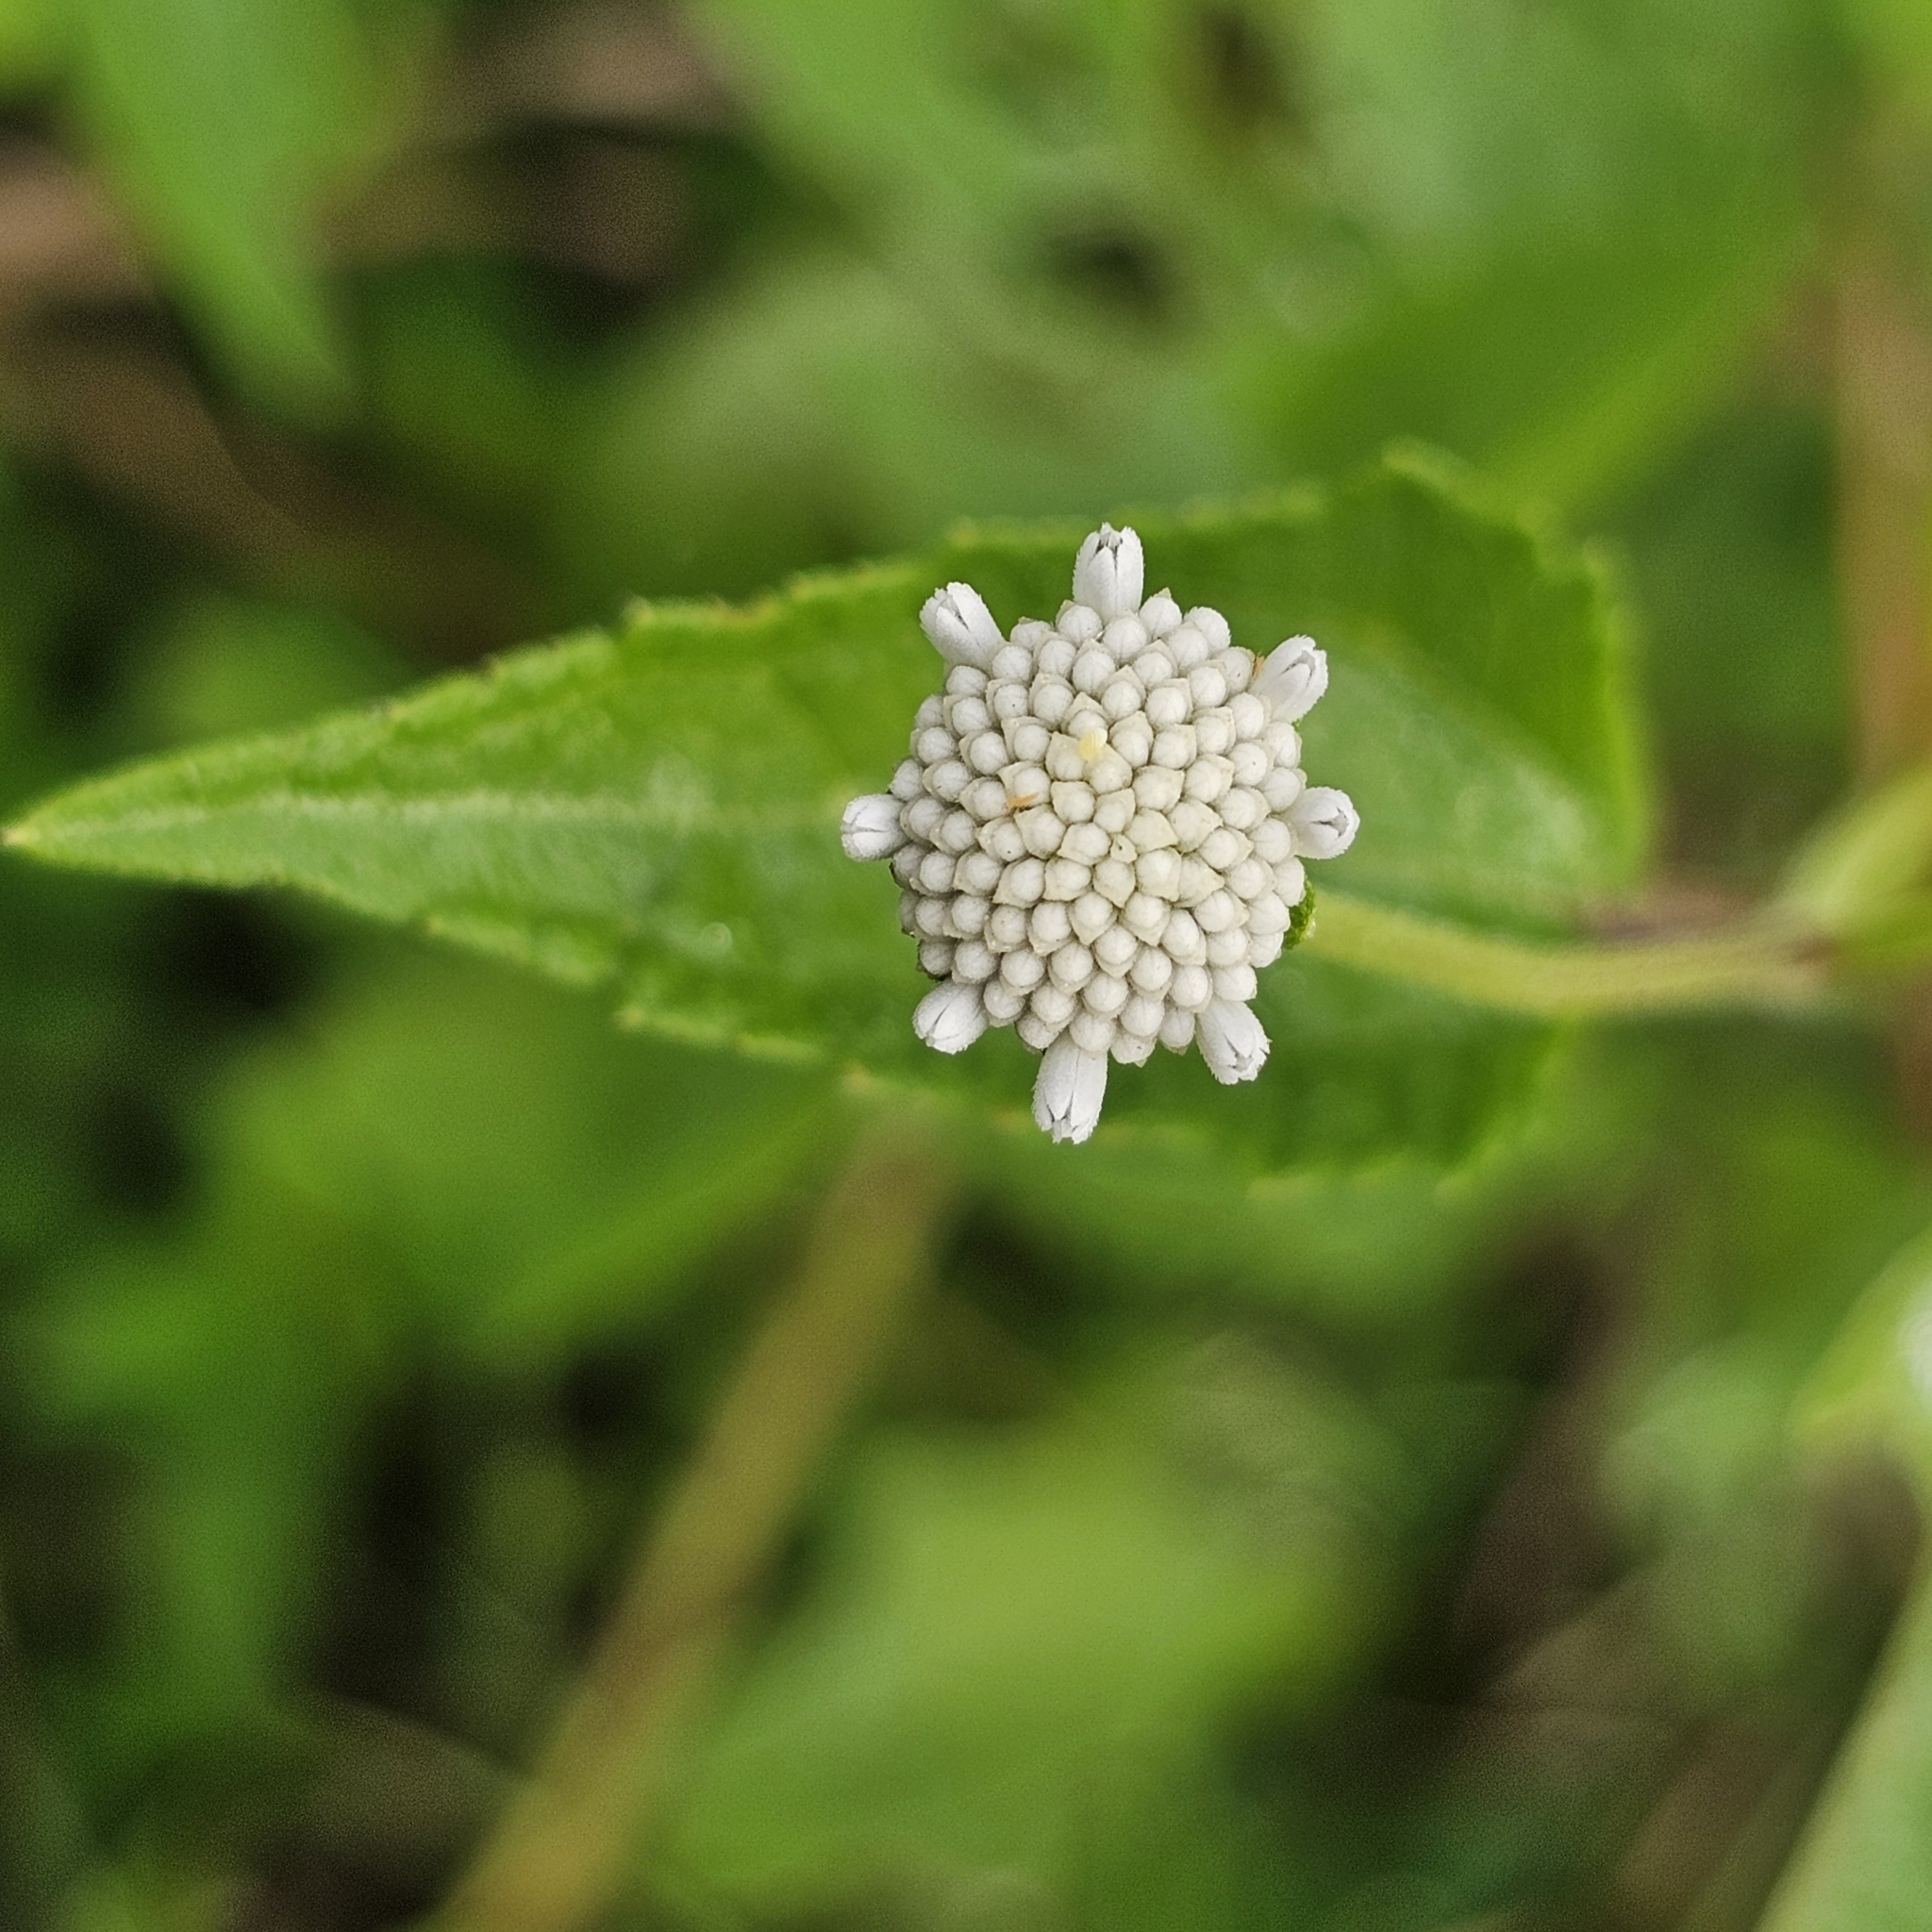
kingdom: Plantae
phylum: Tracheophyta
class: Magnoliopsida
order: Asterales
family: Asteraceae
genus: Melanthera
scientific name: Melanthera nivea
